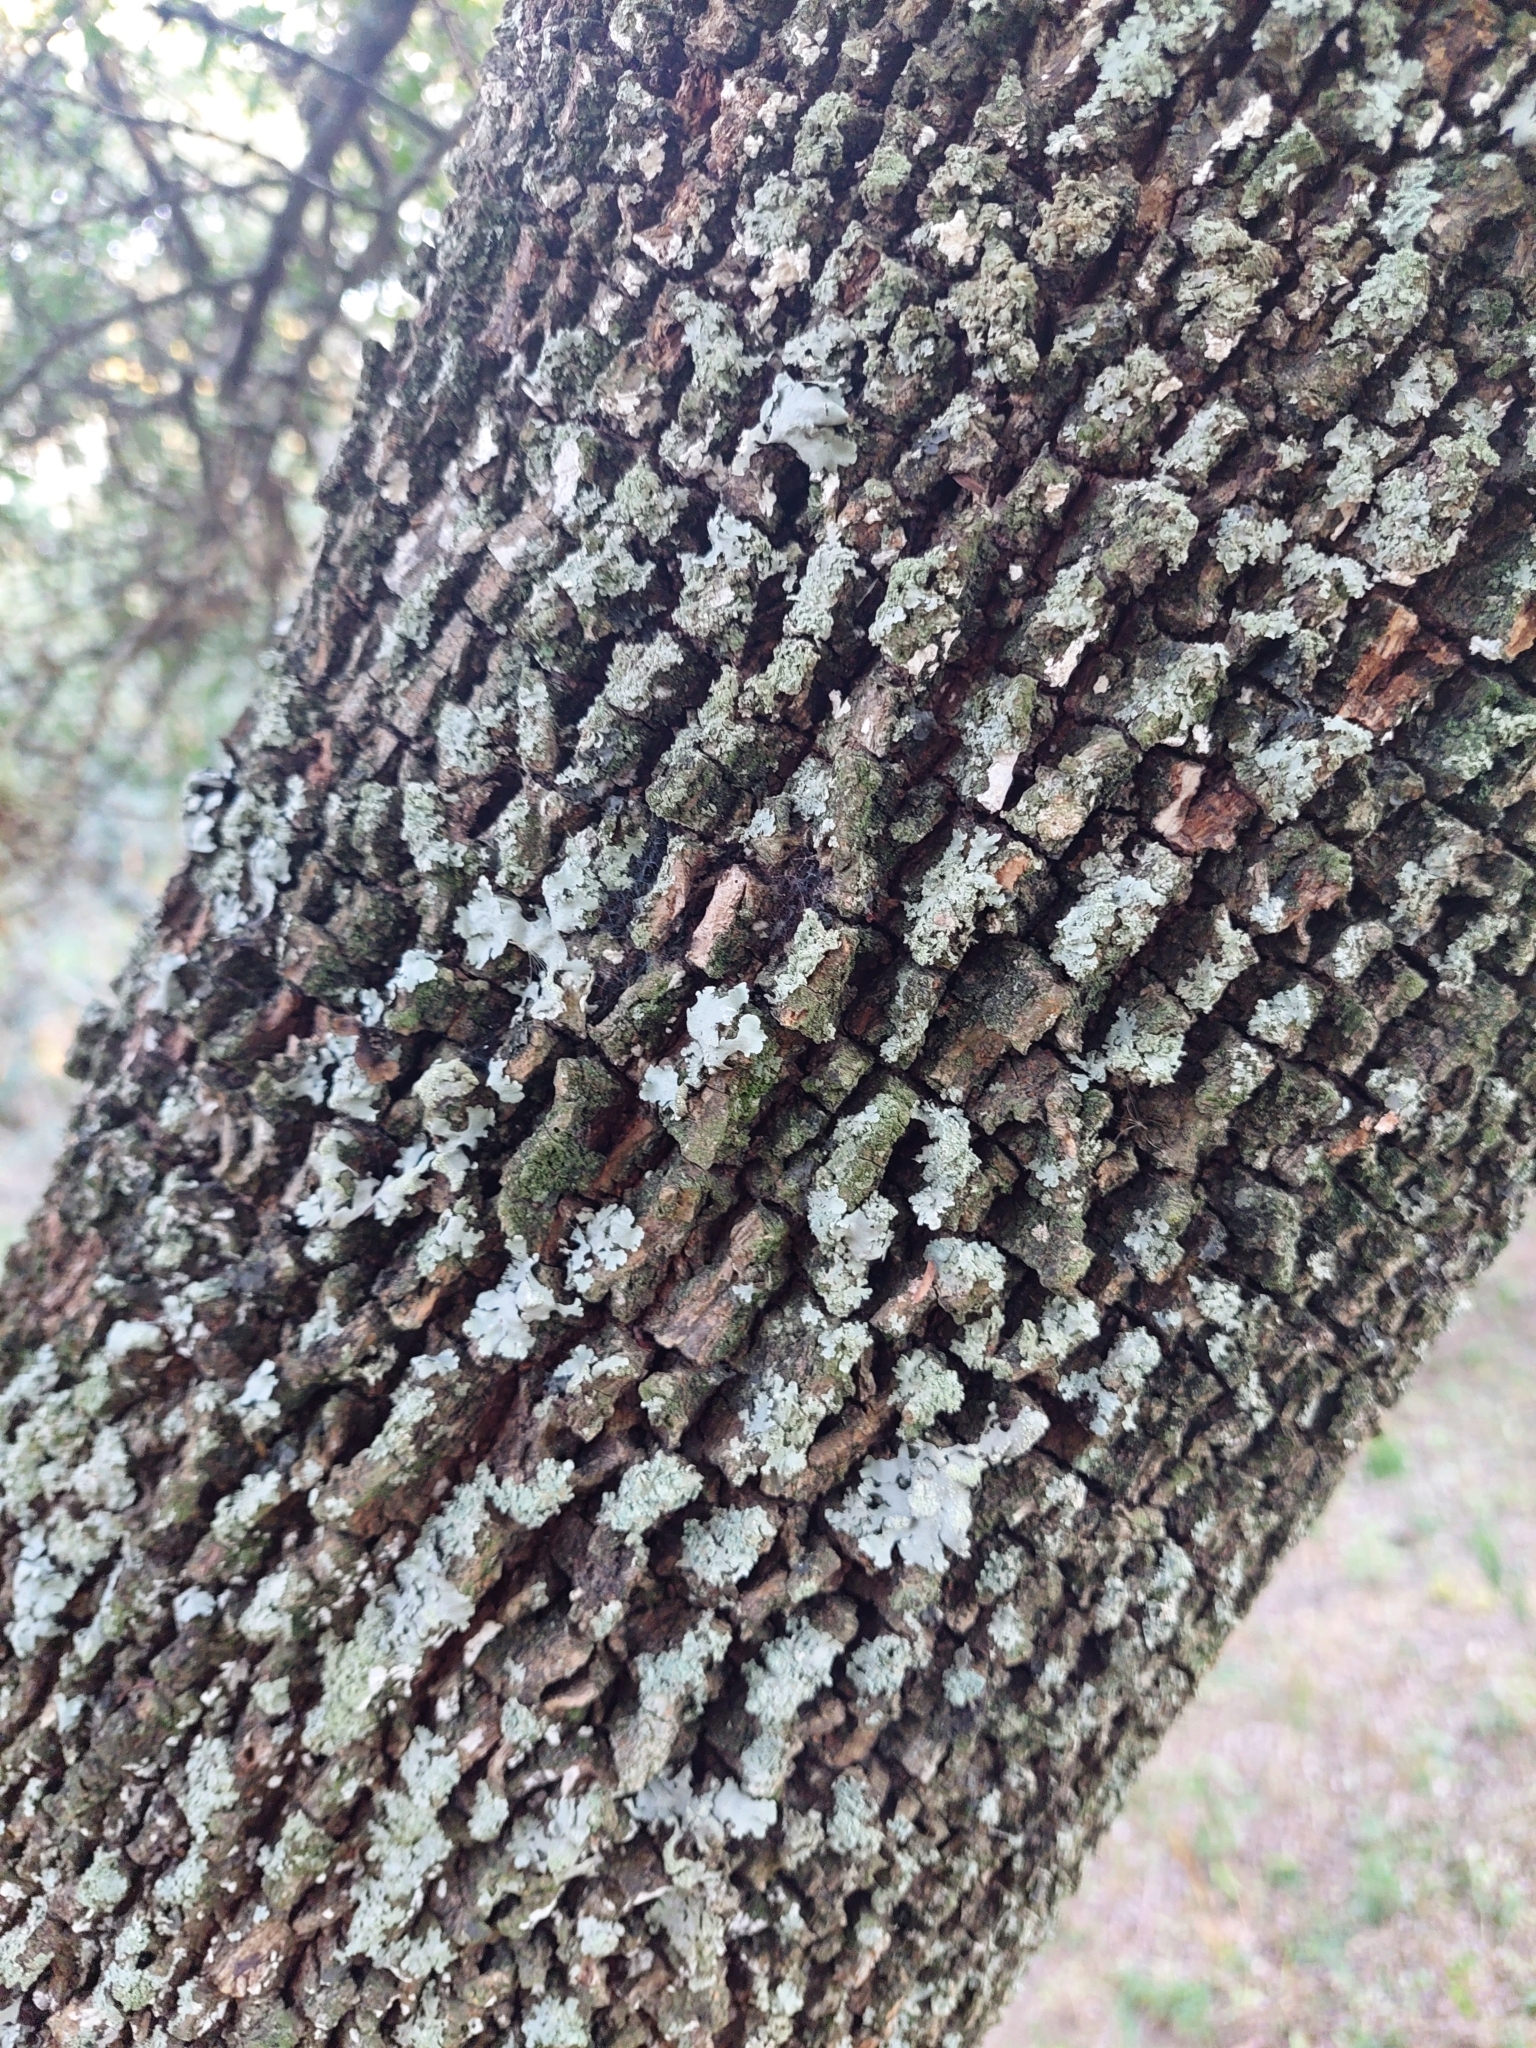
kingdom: Plantae
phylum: Tracheophyta
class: Magnoliopsida
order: Ericales
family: Sapotaceae
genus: Sideroxylon
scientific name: Sideroxylon obtusifolium
